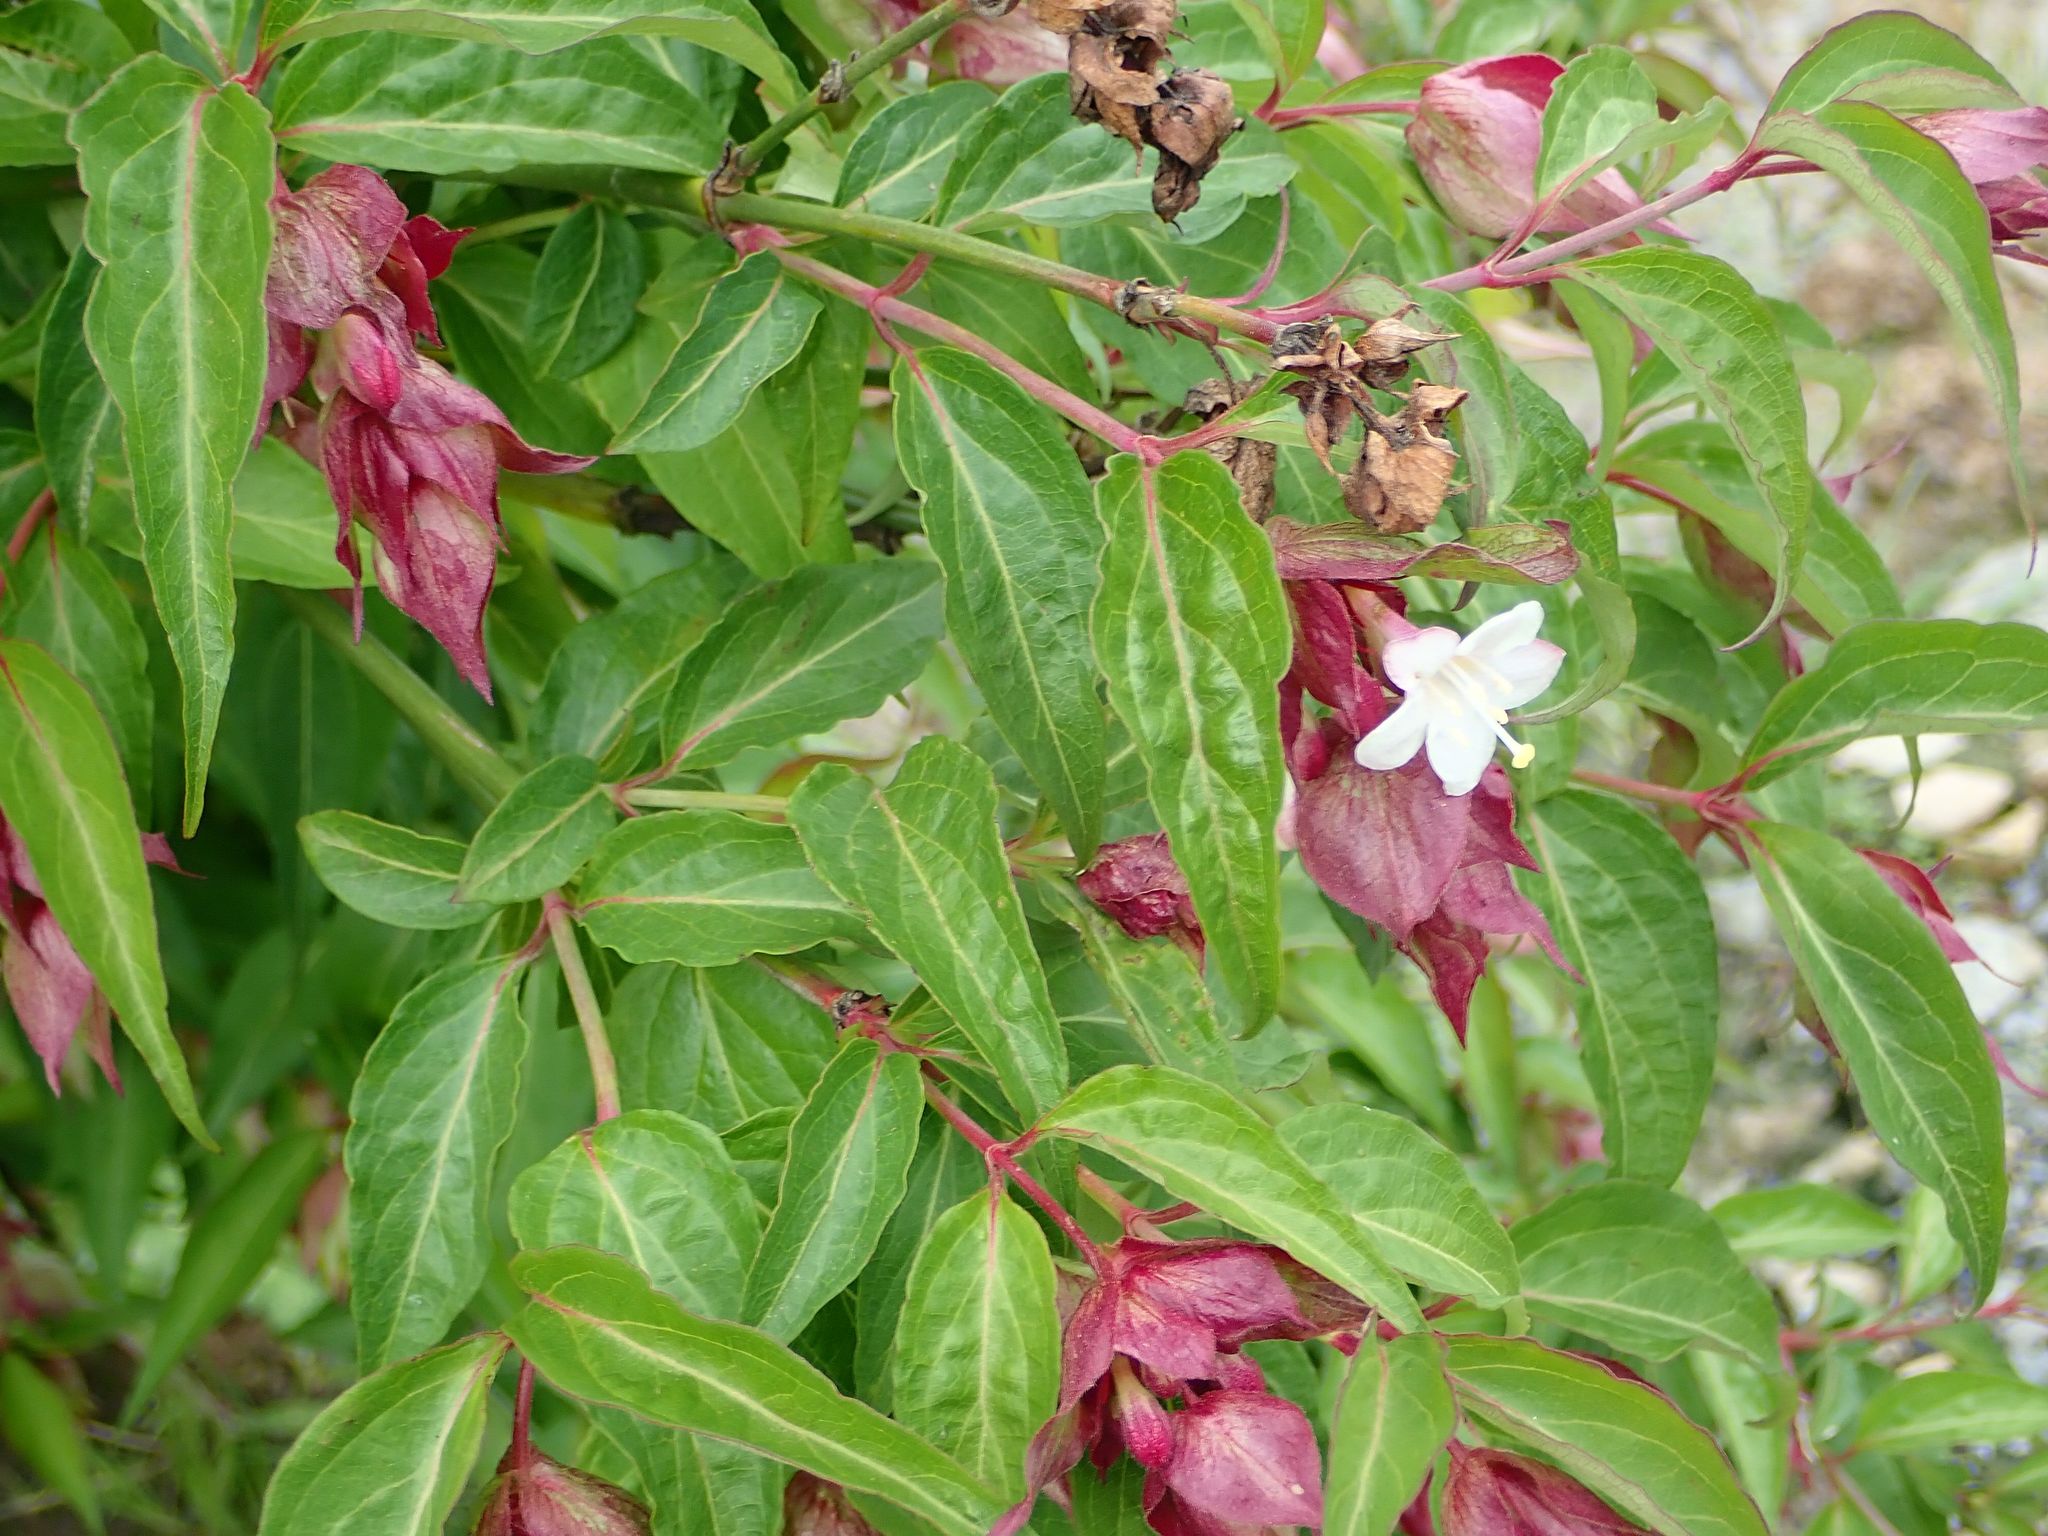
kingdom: Plantae
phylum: Tracheophyta
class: Magnoliopsida
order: Dipsacales
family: Caprifoliaceae
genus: Leycesteria
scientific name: Leycesteria formosa
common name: Himalayan honeysuckle
